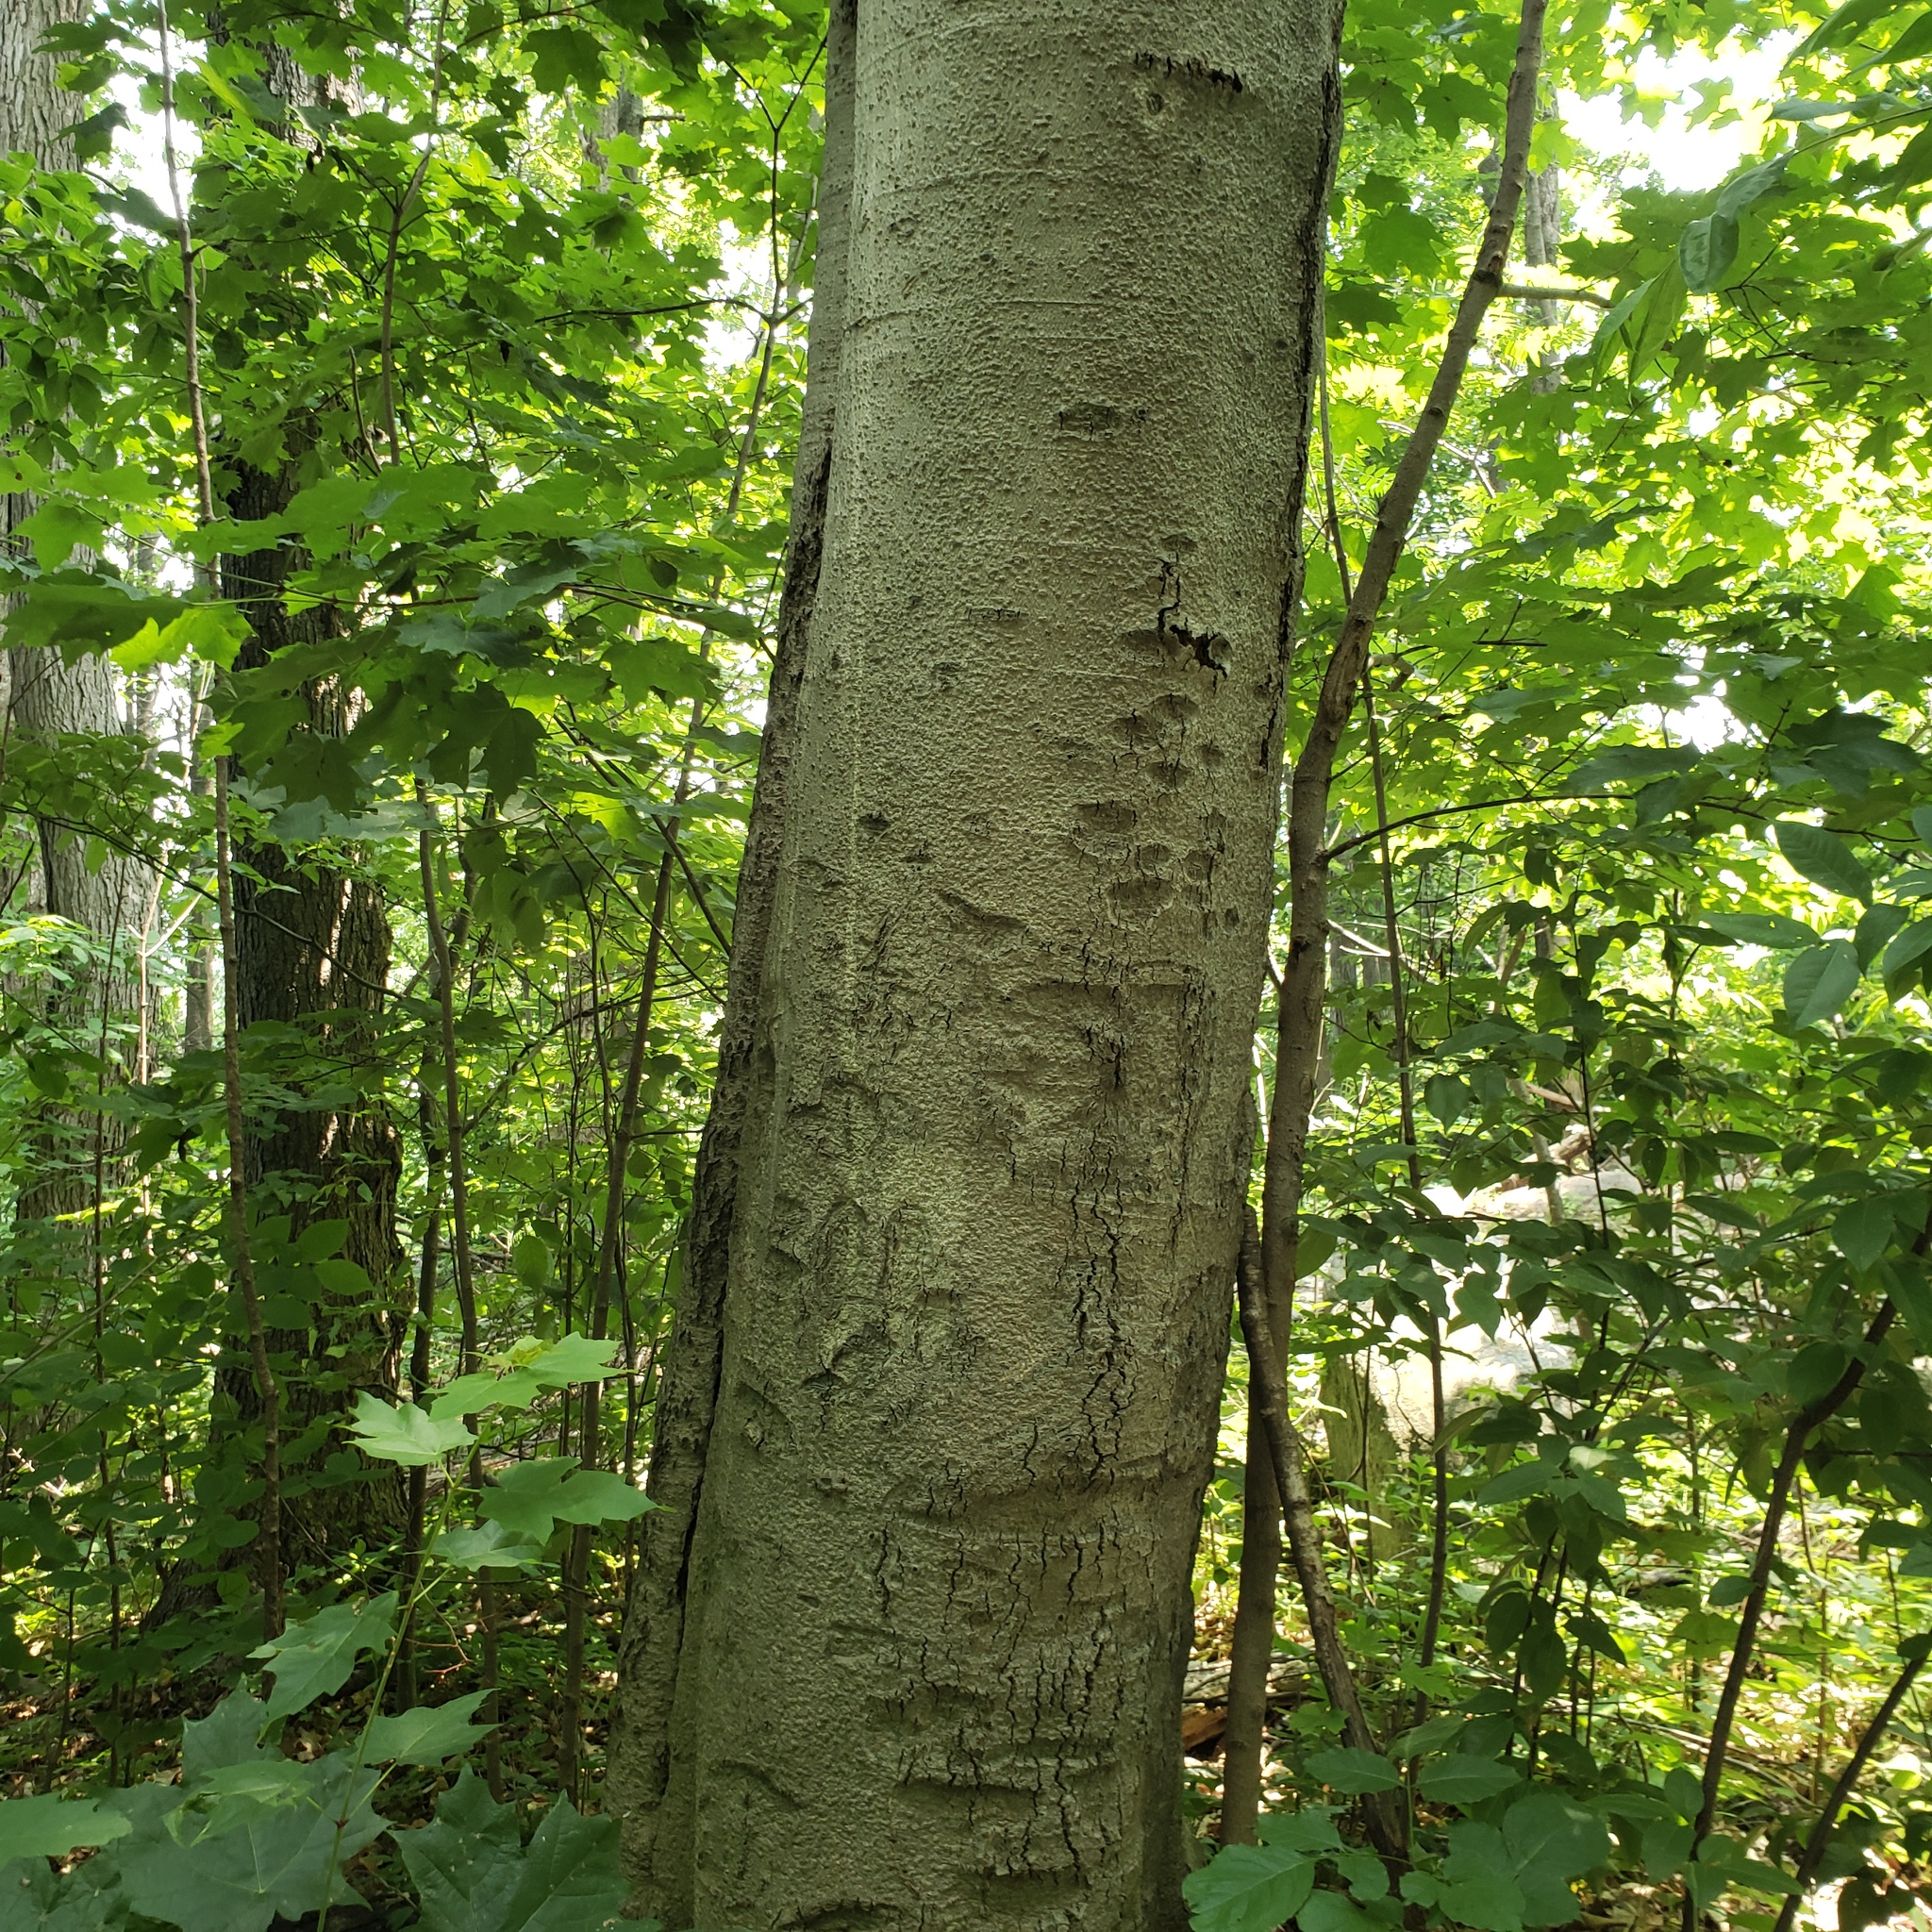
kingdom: Plantae
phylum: Tracheophyta
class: Magnoliopsida
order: Fagales
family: Fagaceae
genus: Fagus
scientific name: Fagus grandifolia
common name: American beech
